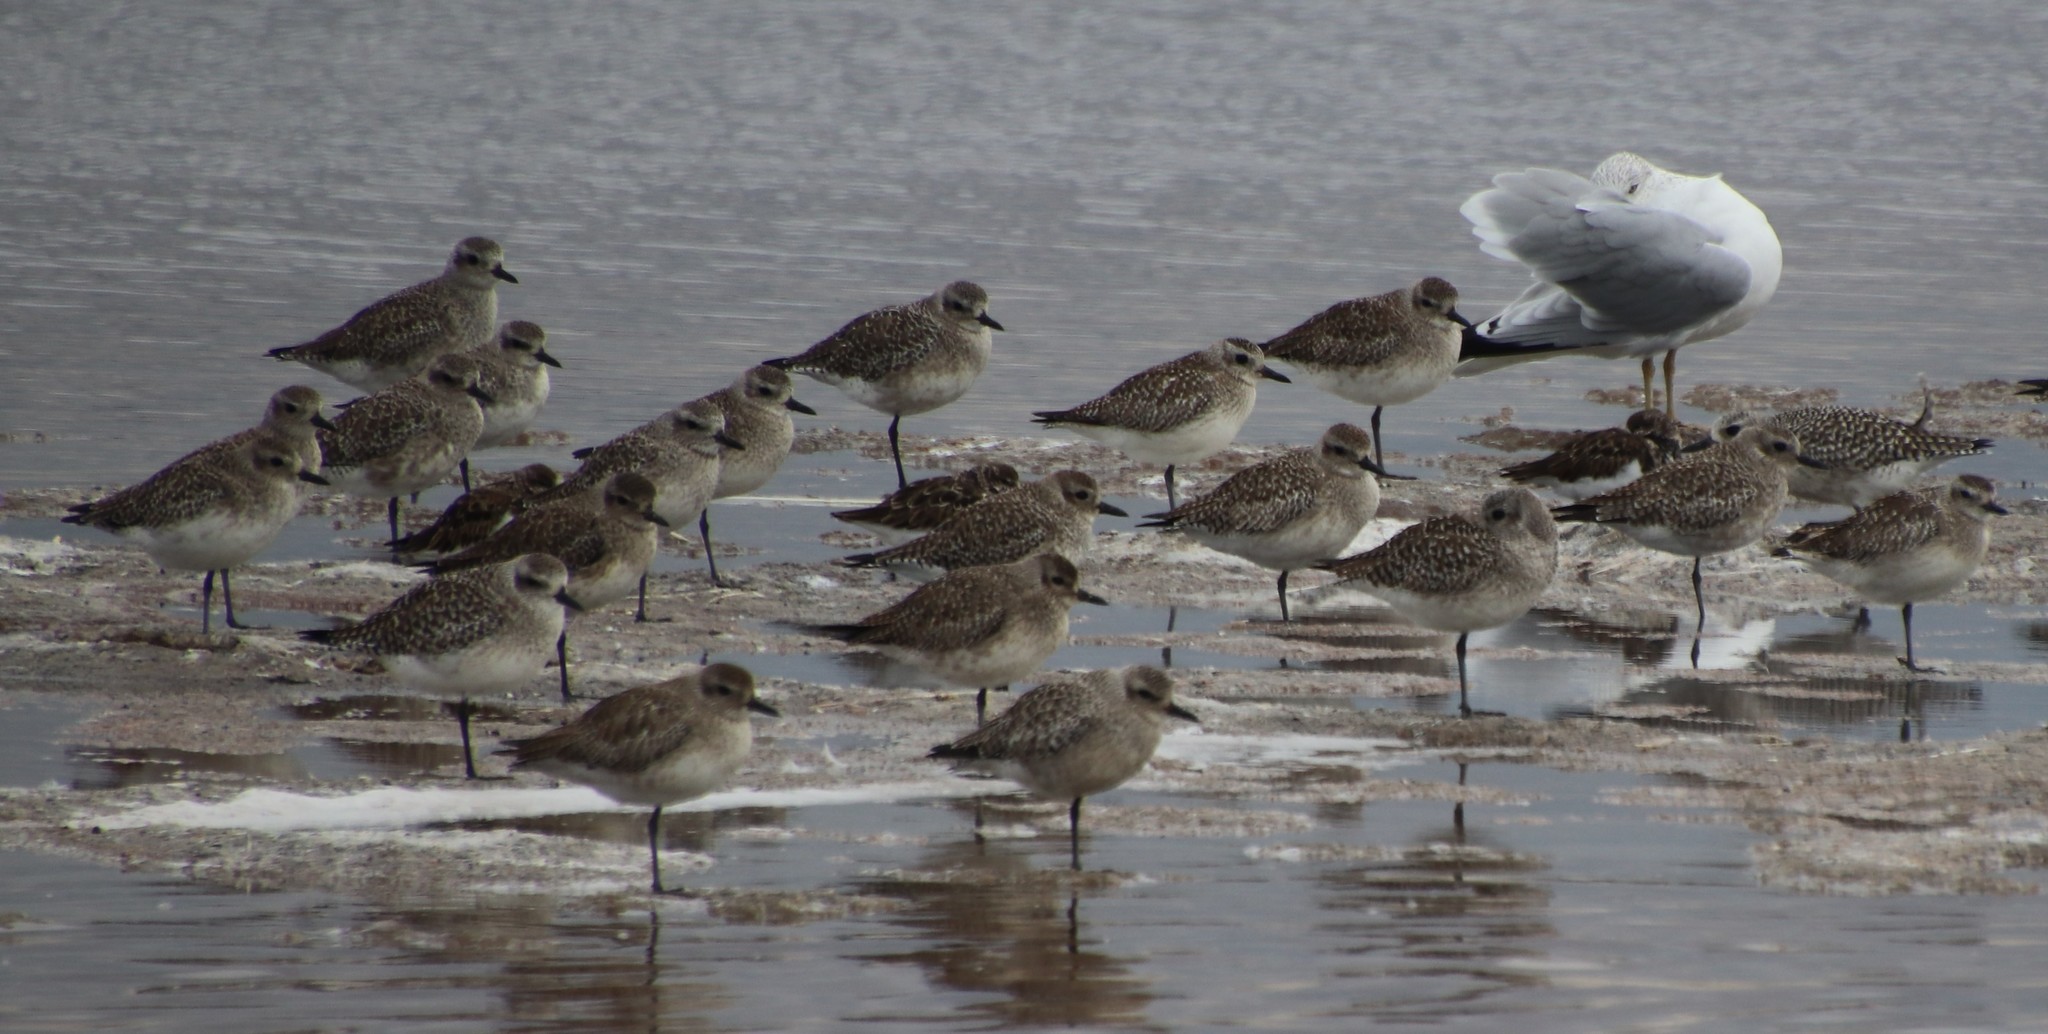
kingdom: Animalia
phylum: Chordata
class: Aves
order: Charadriiformes
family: Charadriidae
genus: Pluvialis
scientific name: Pluvialis squatarola
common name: Grey plover
